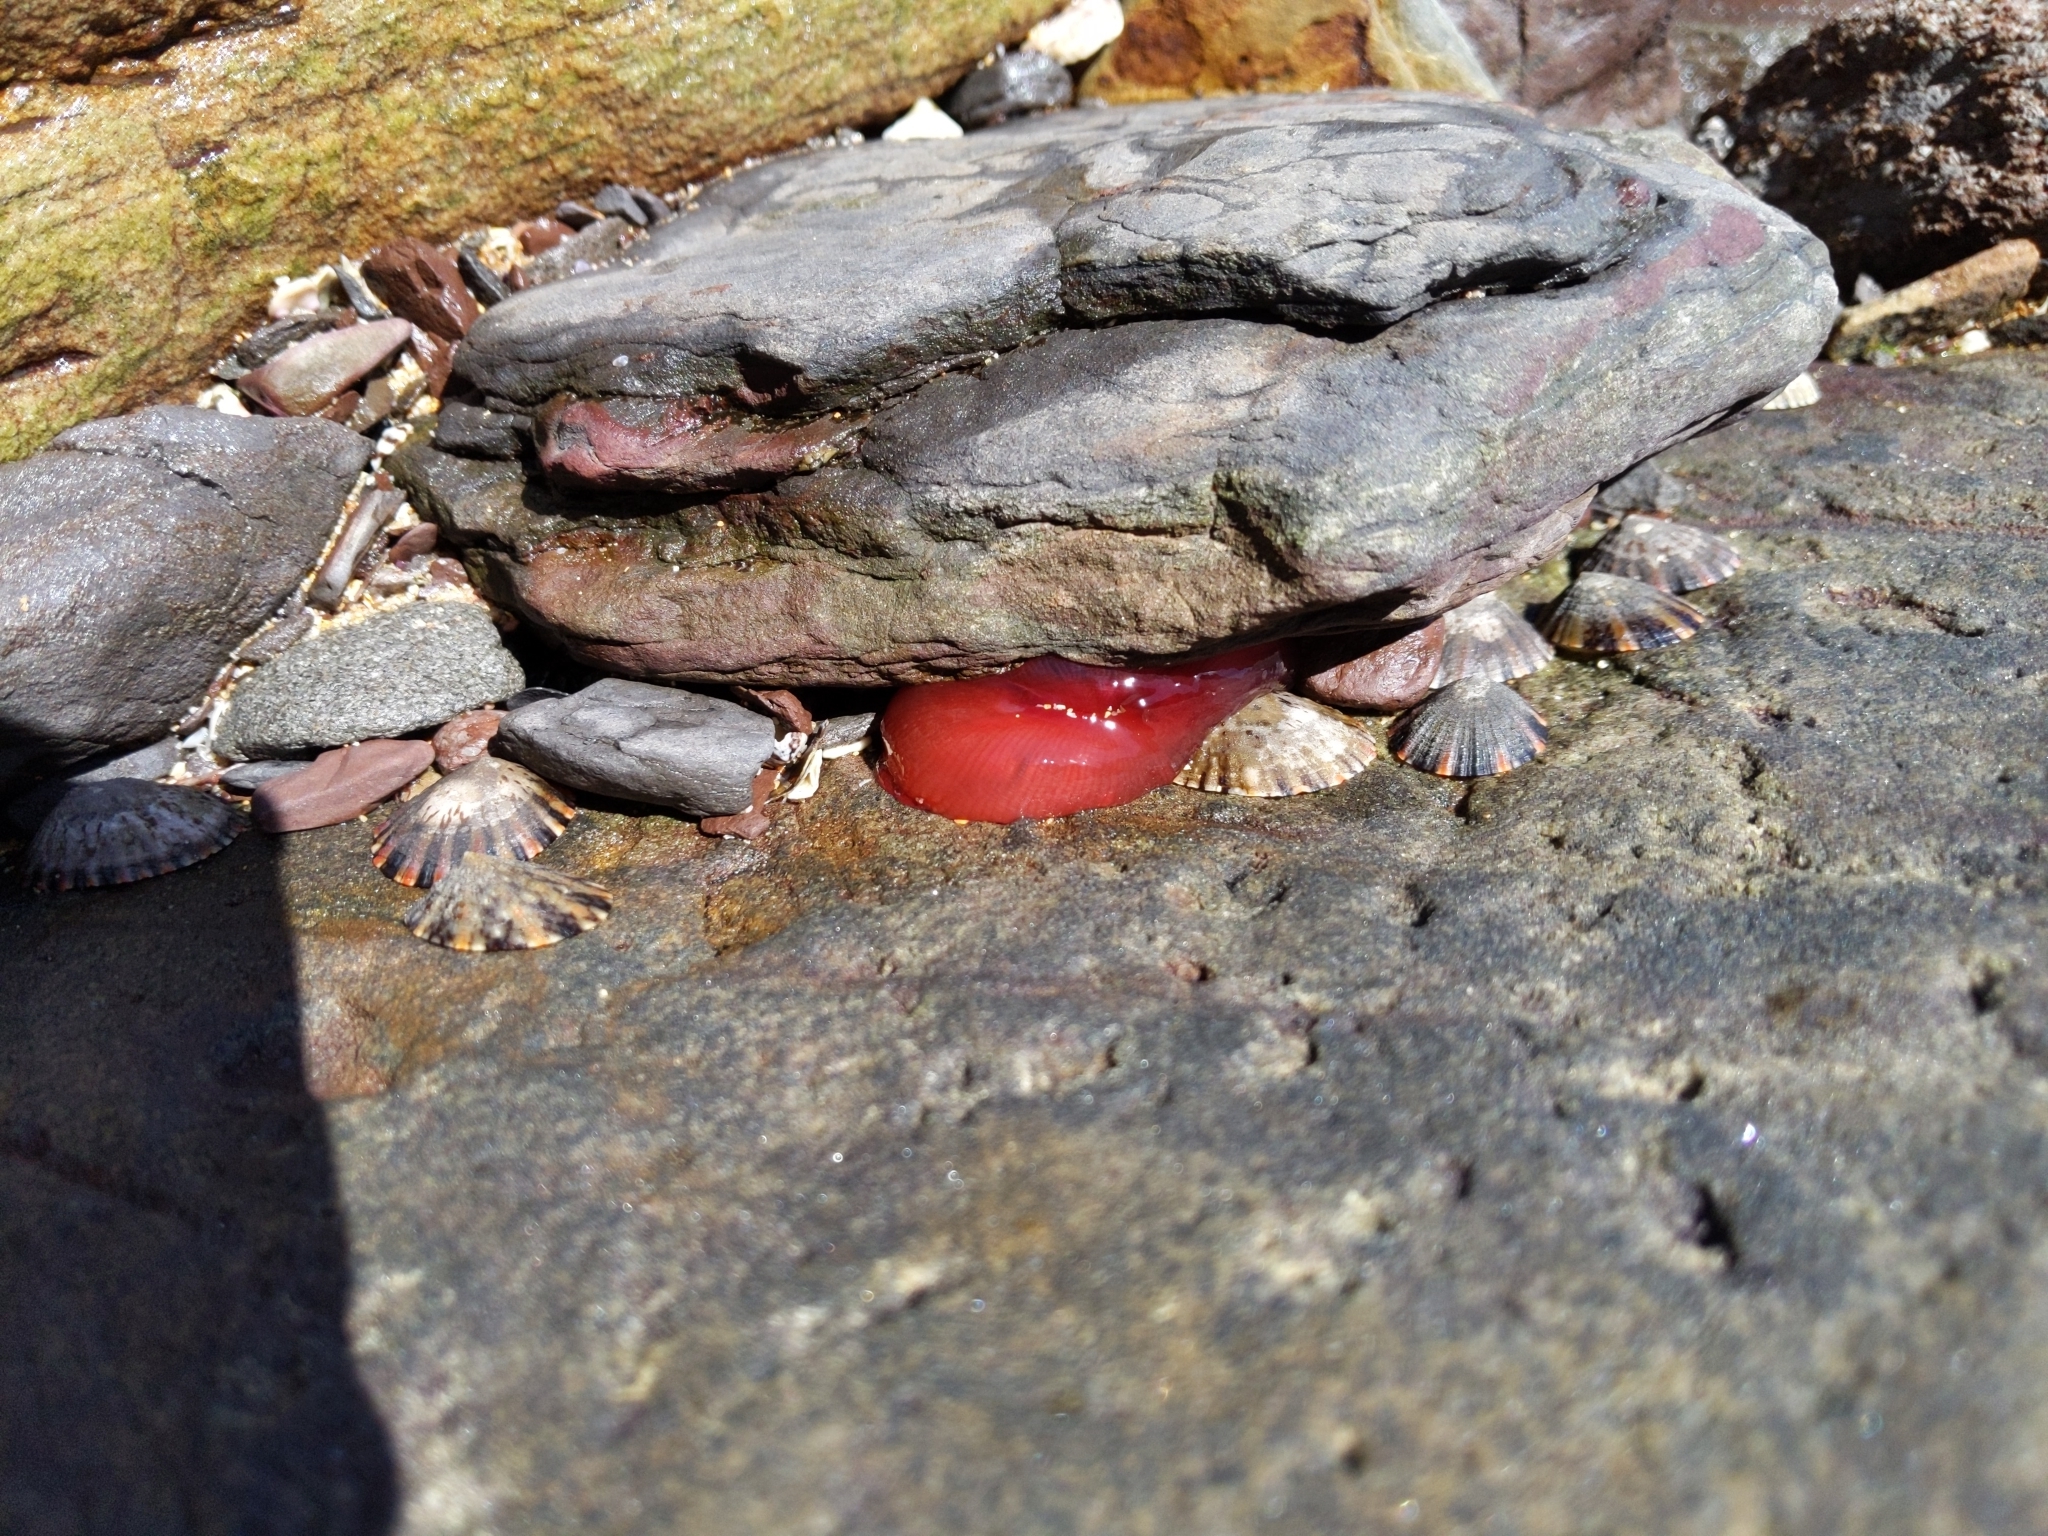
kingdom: Animalia
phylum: Cnidaria
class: Anthozoa
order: Actiniaria
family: Actiniidae
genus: Actinia
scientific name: Actinia tenebrosa
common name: Waratah anemone
